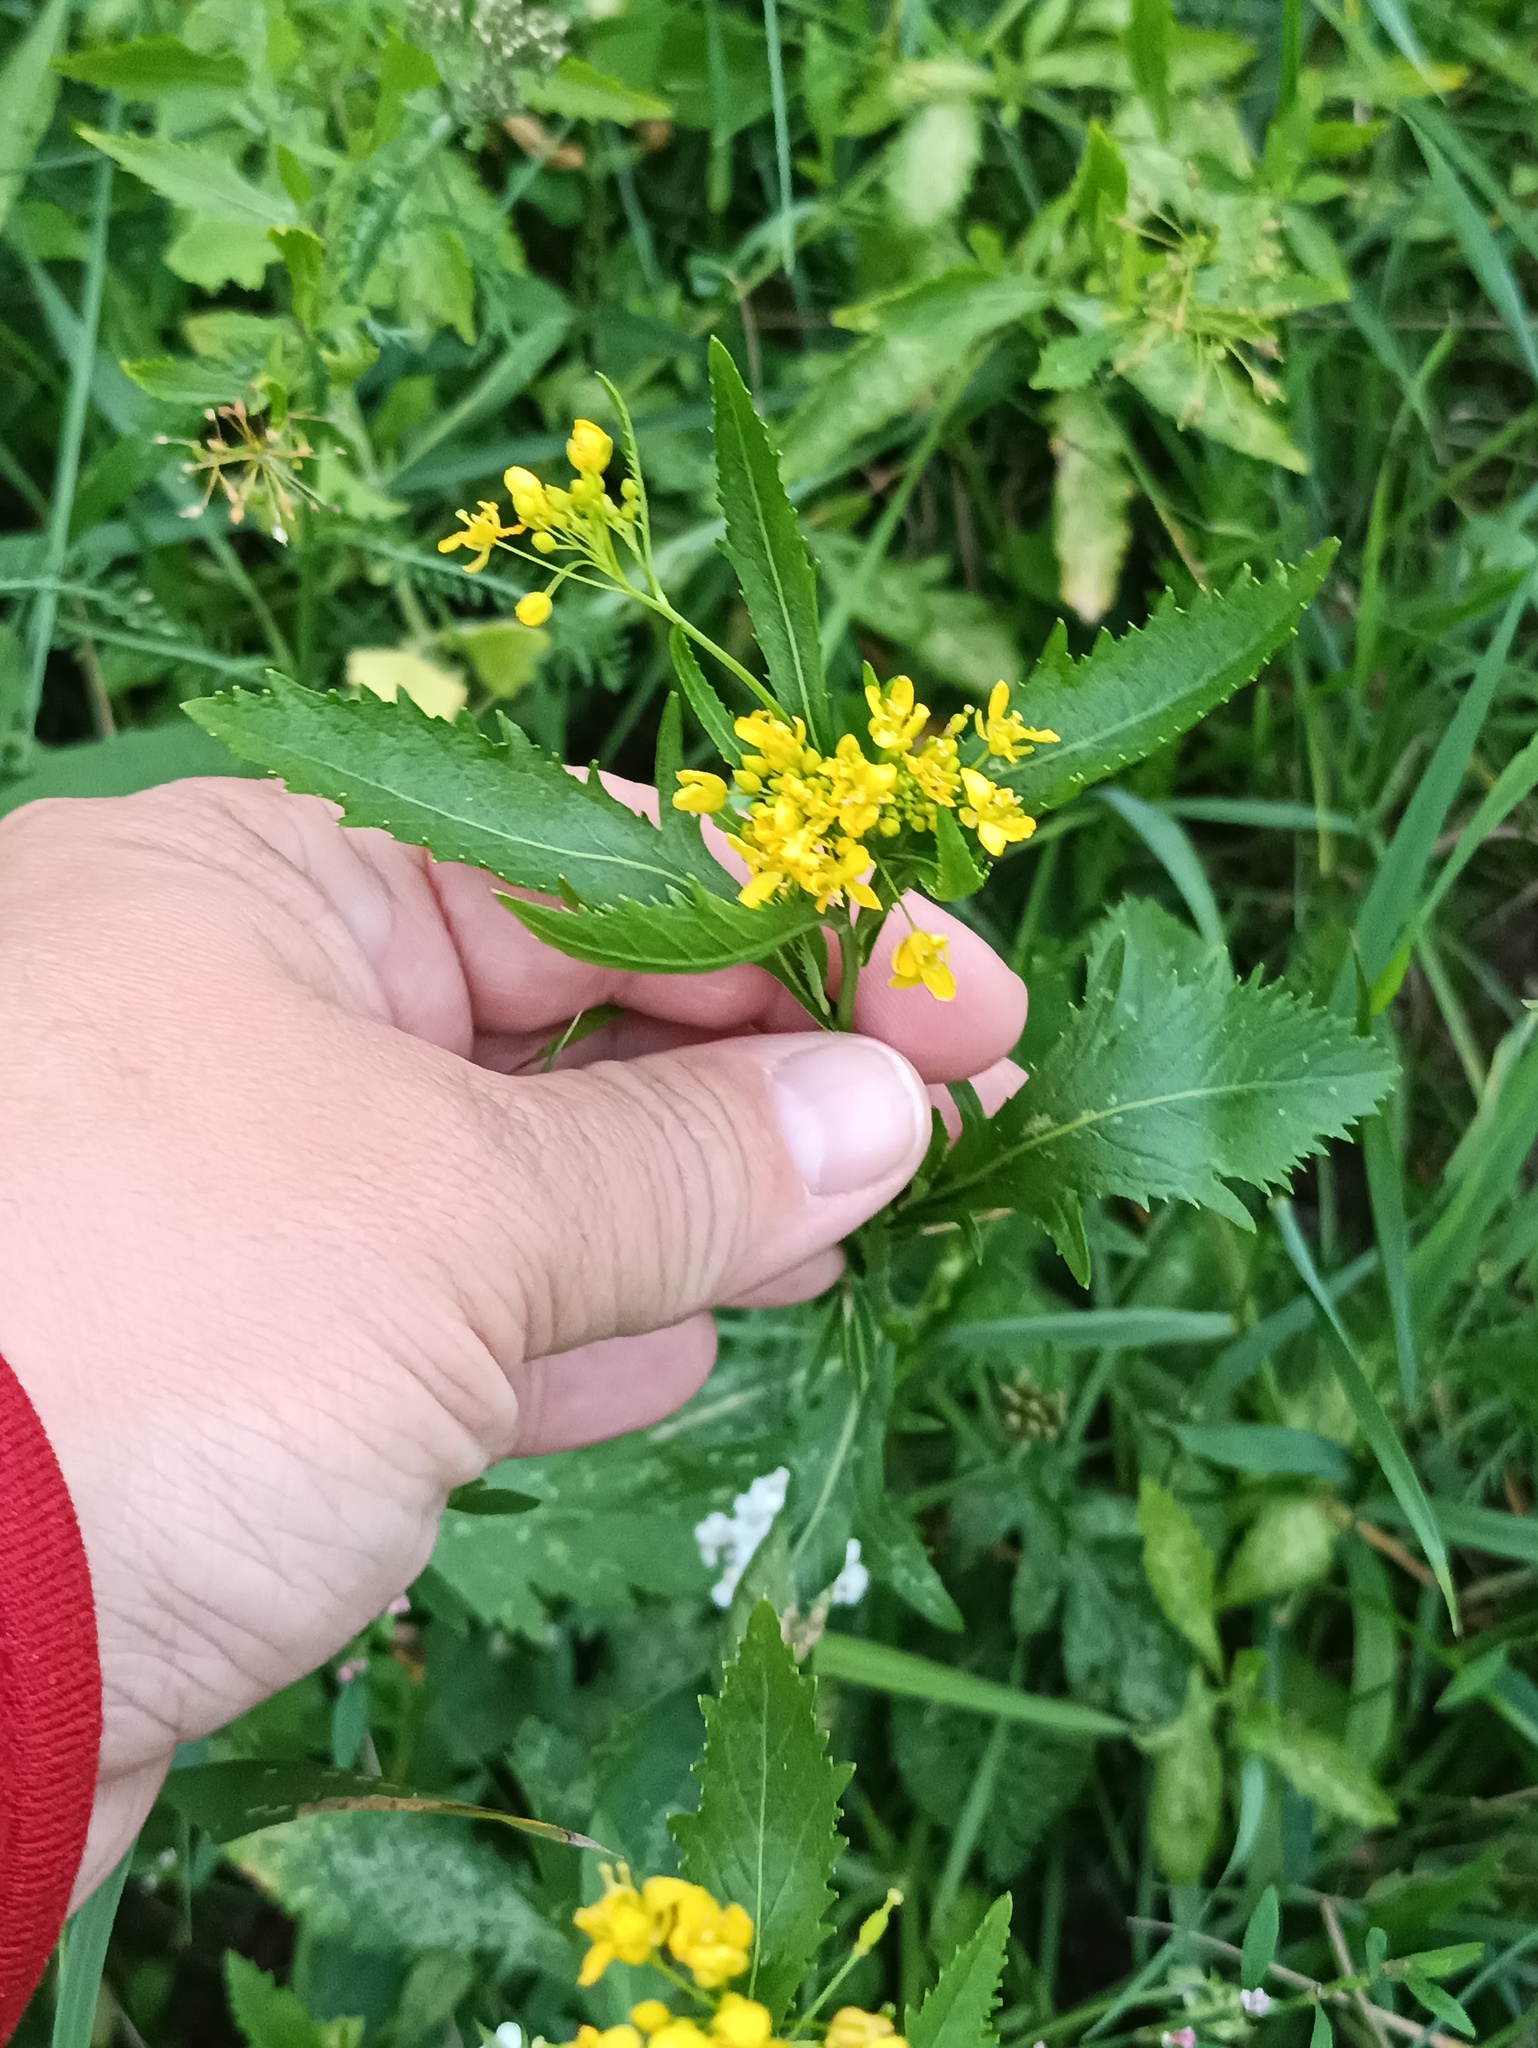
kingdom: Plantae
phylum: Tracheophyta
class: Magnoliopsida
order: Brassicales
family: Brassicaceae
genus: Rorippa
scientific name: Rorippa austriaca
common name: Austrian yellow-cress
